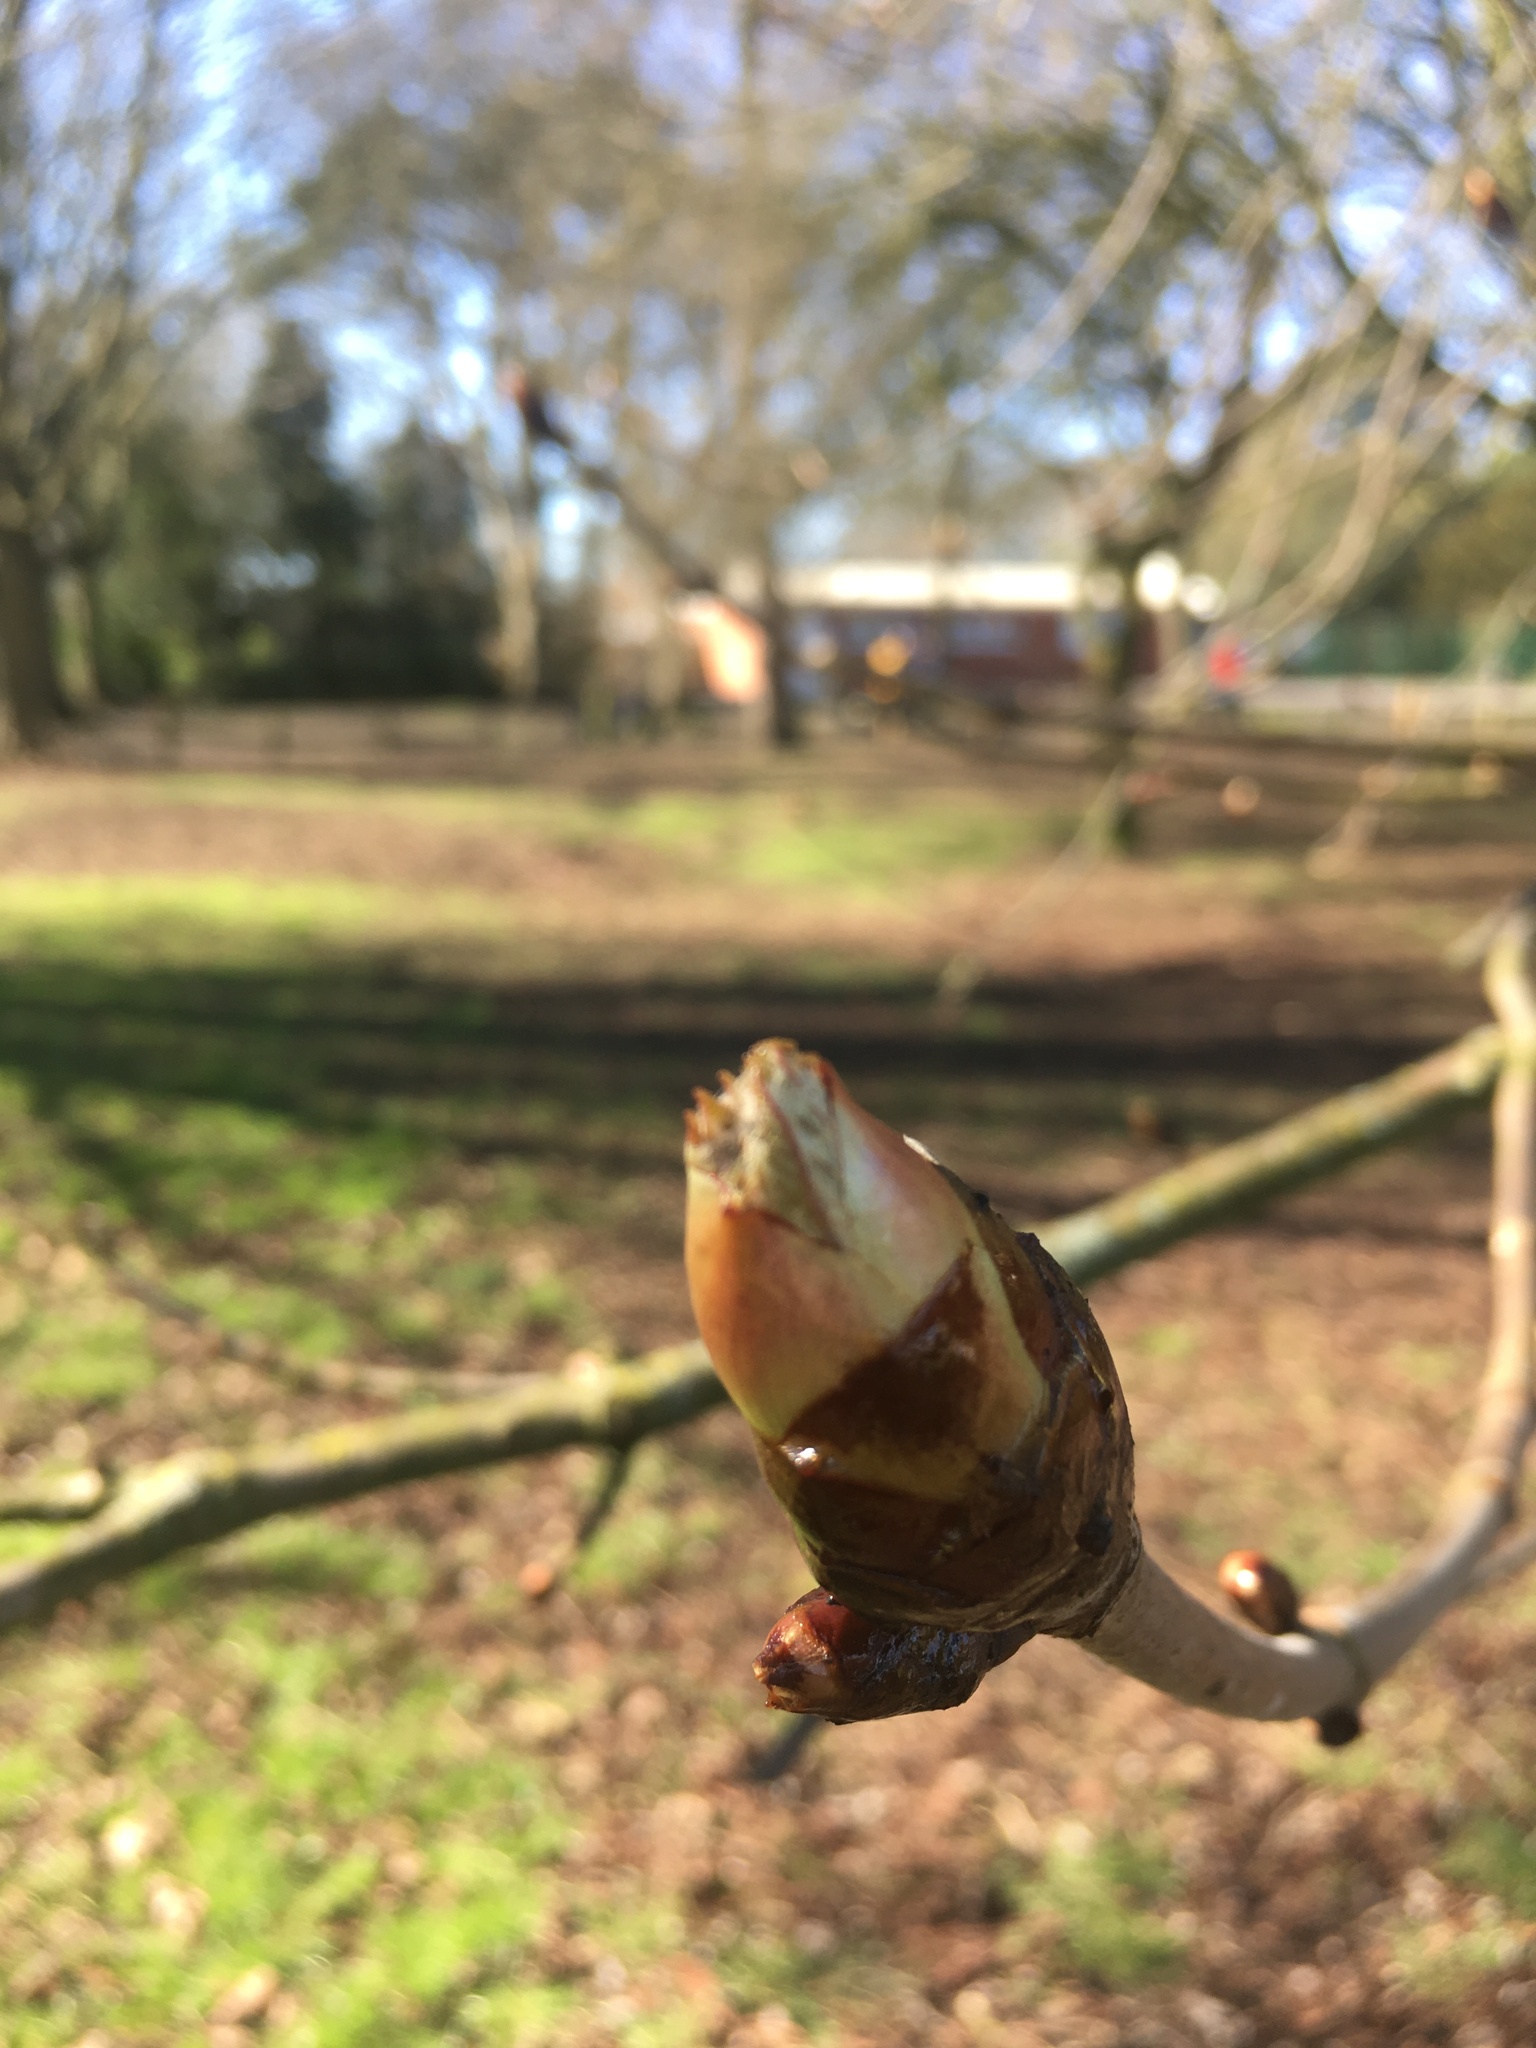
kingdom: Plantae
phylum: Tracheophyta
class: Magnoliopsida
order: Sapindales
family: Sapindaceae
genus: Aesculus
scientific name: Aesculus hippocastanum
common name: Horse-chestnut
